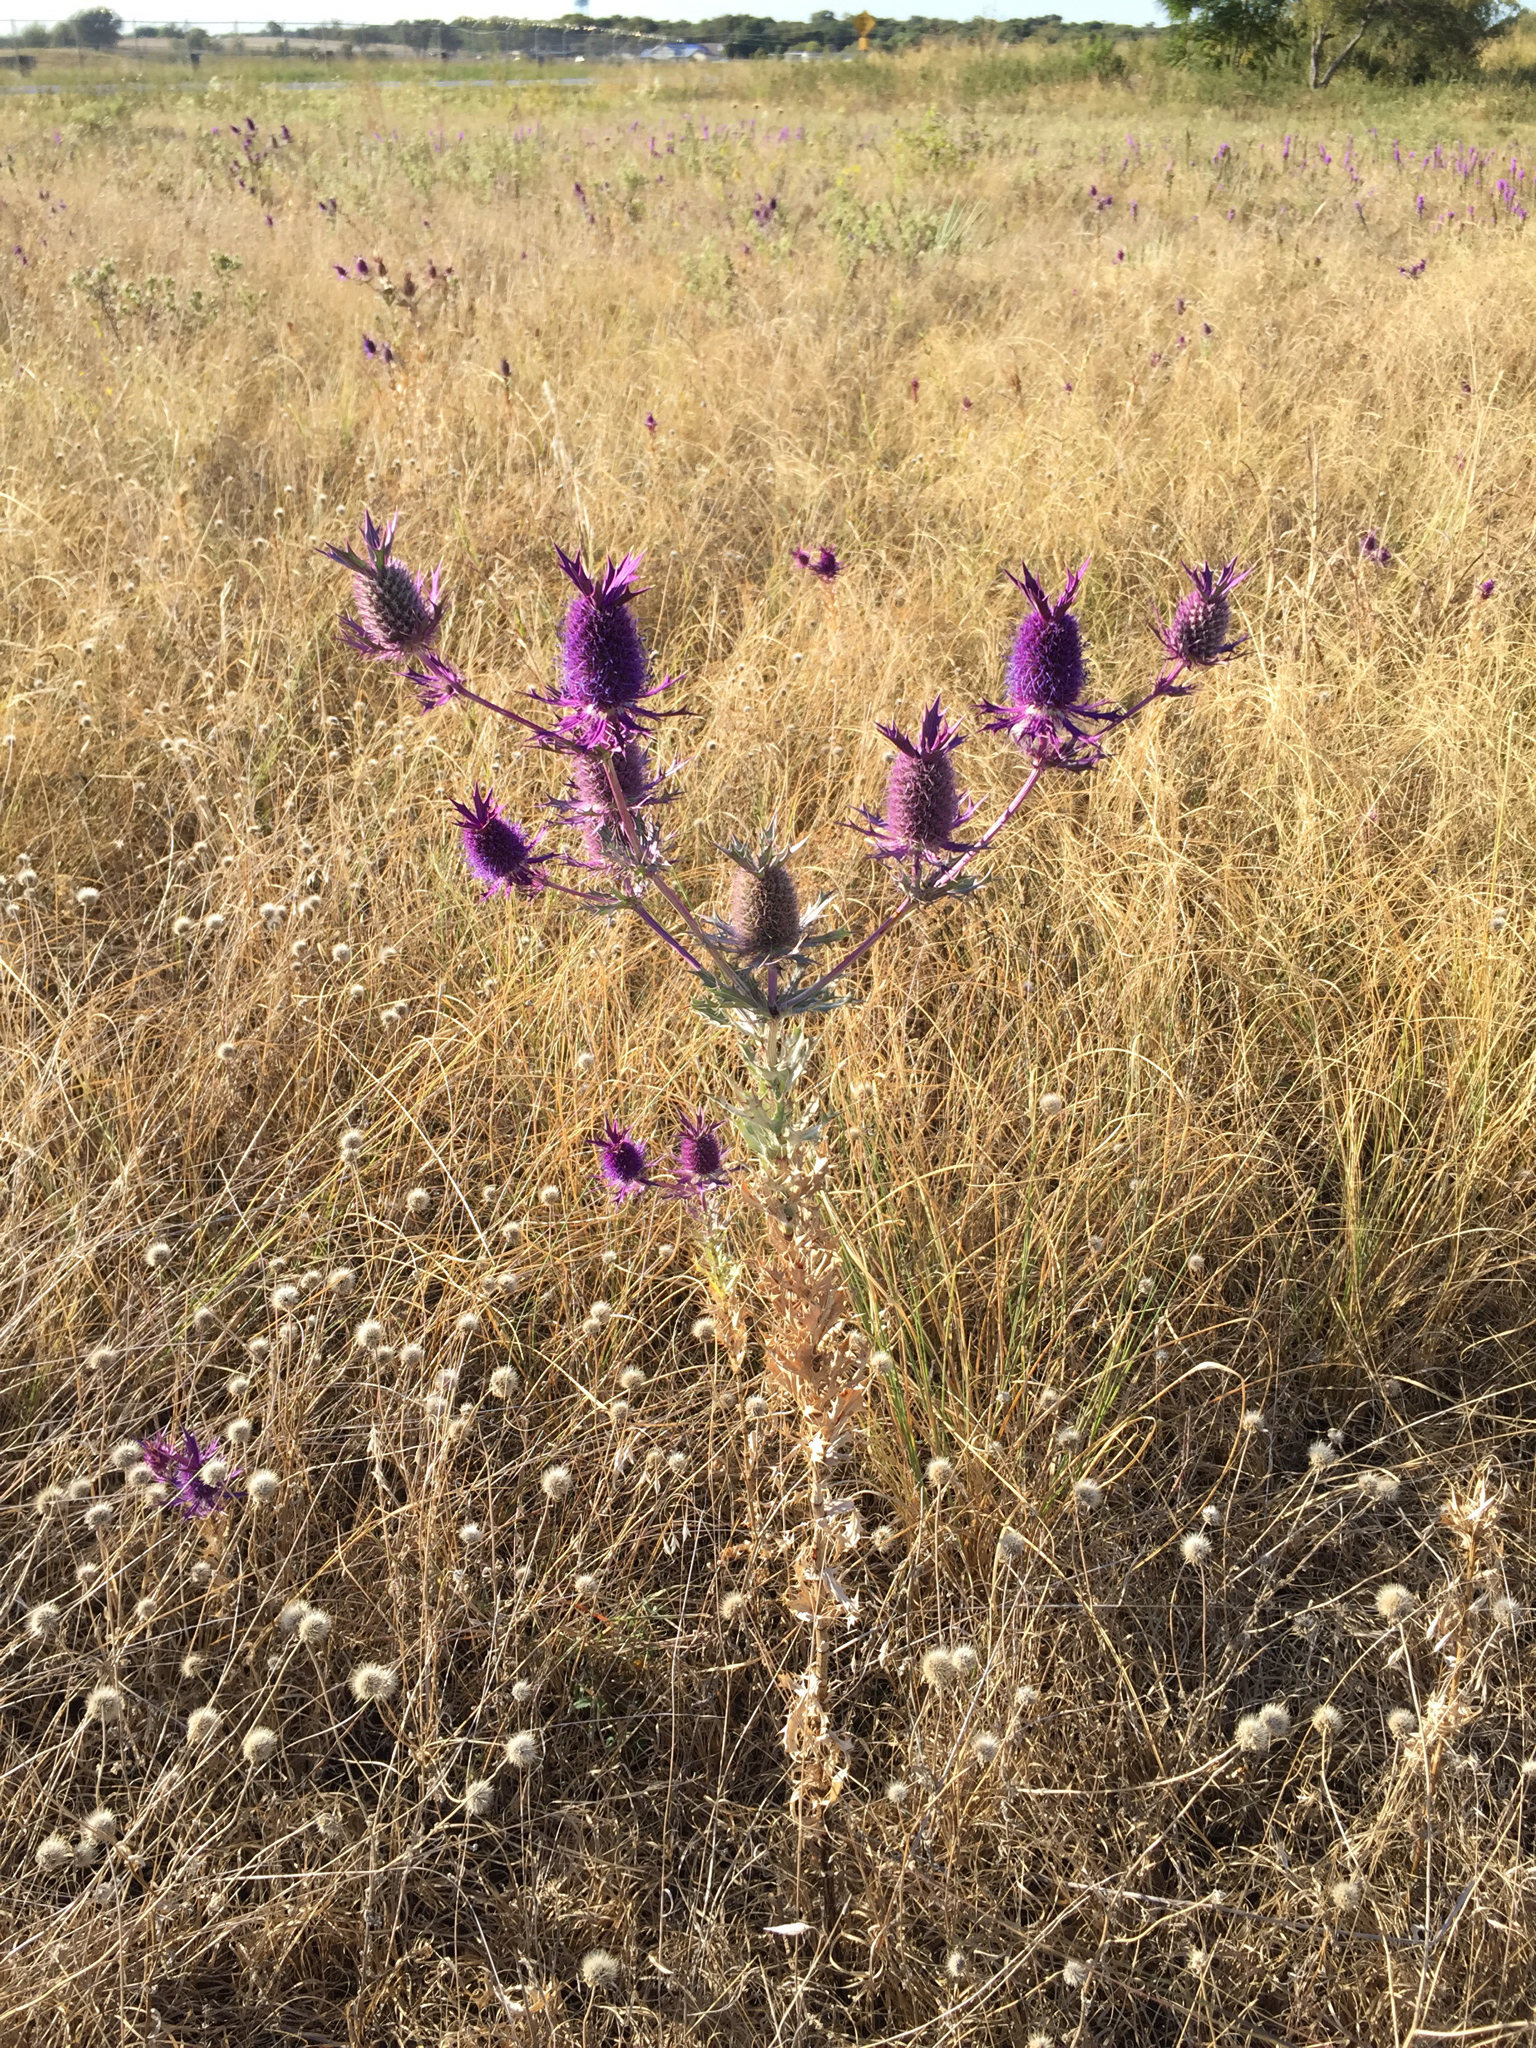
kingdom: Plantae
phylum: Tracheophyta
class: Magnoliopsida
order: Apiales
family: Apiaceae
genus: Eryngium
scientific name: Eryngium leavenworthii
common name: Leavenworth's eryngo
